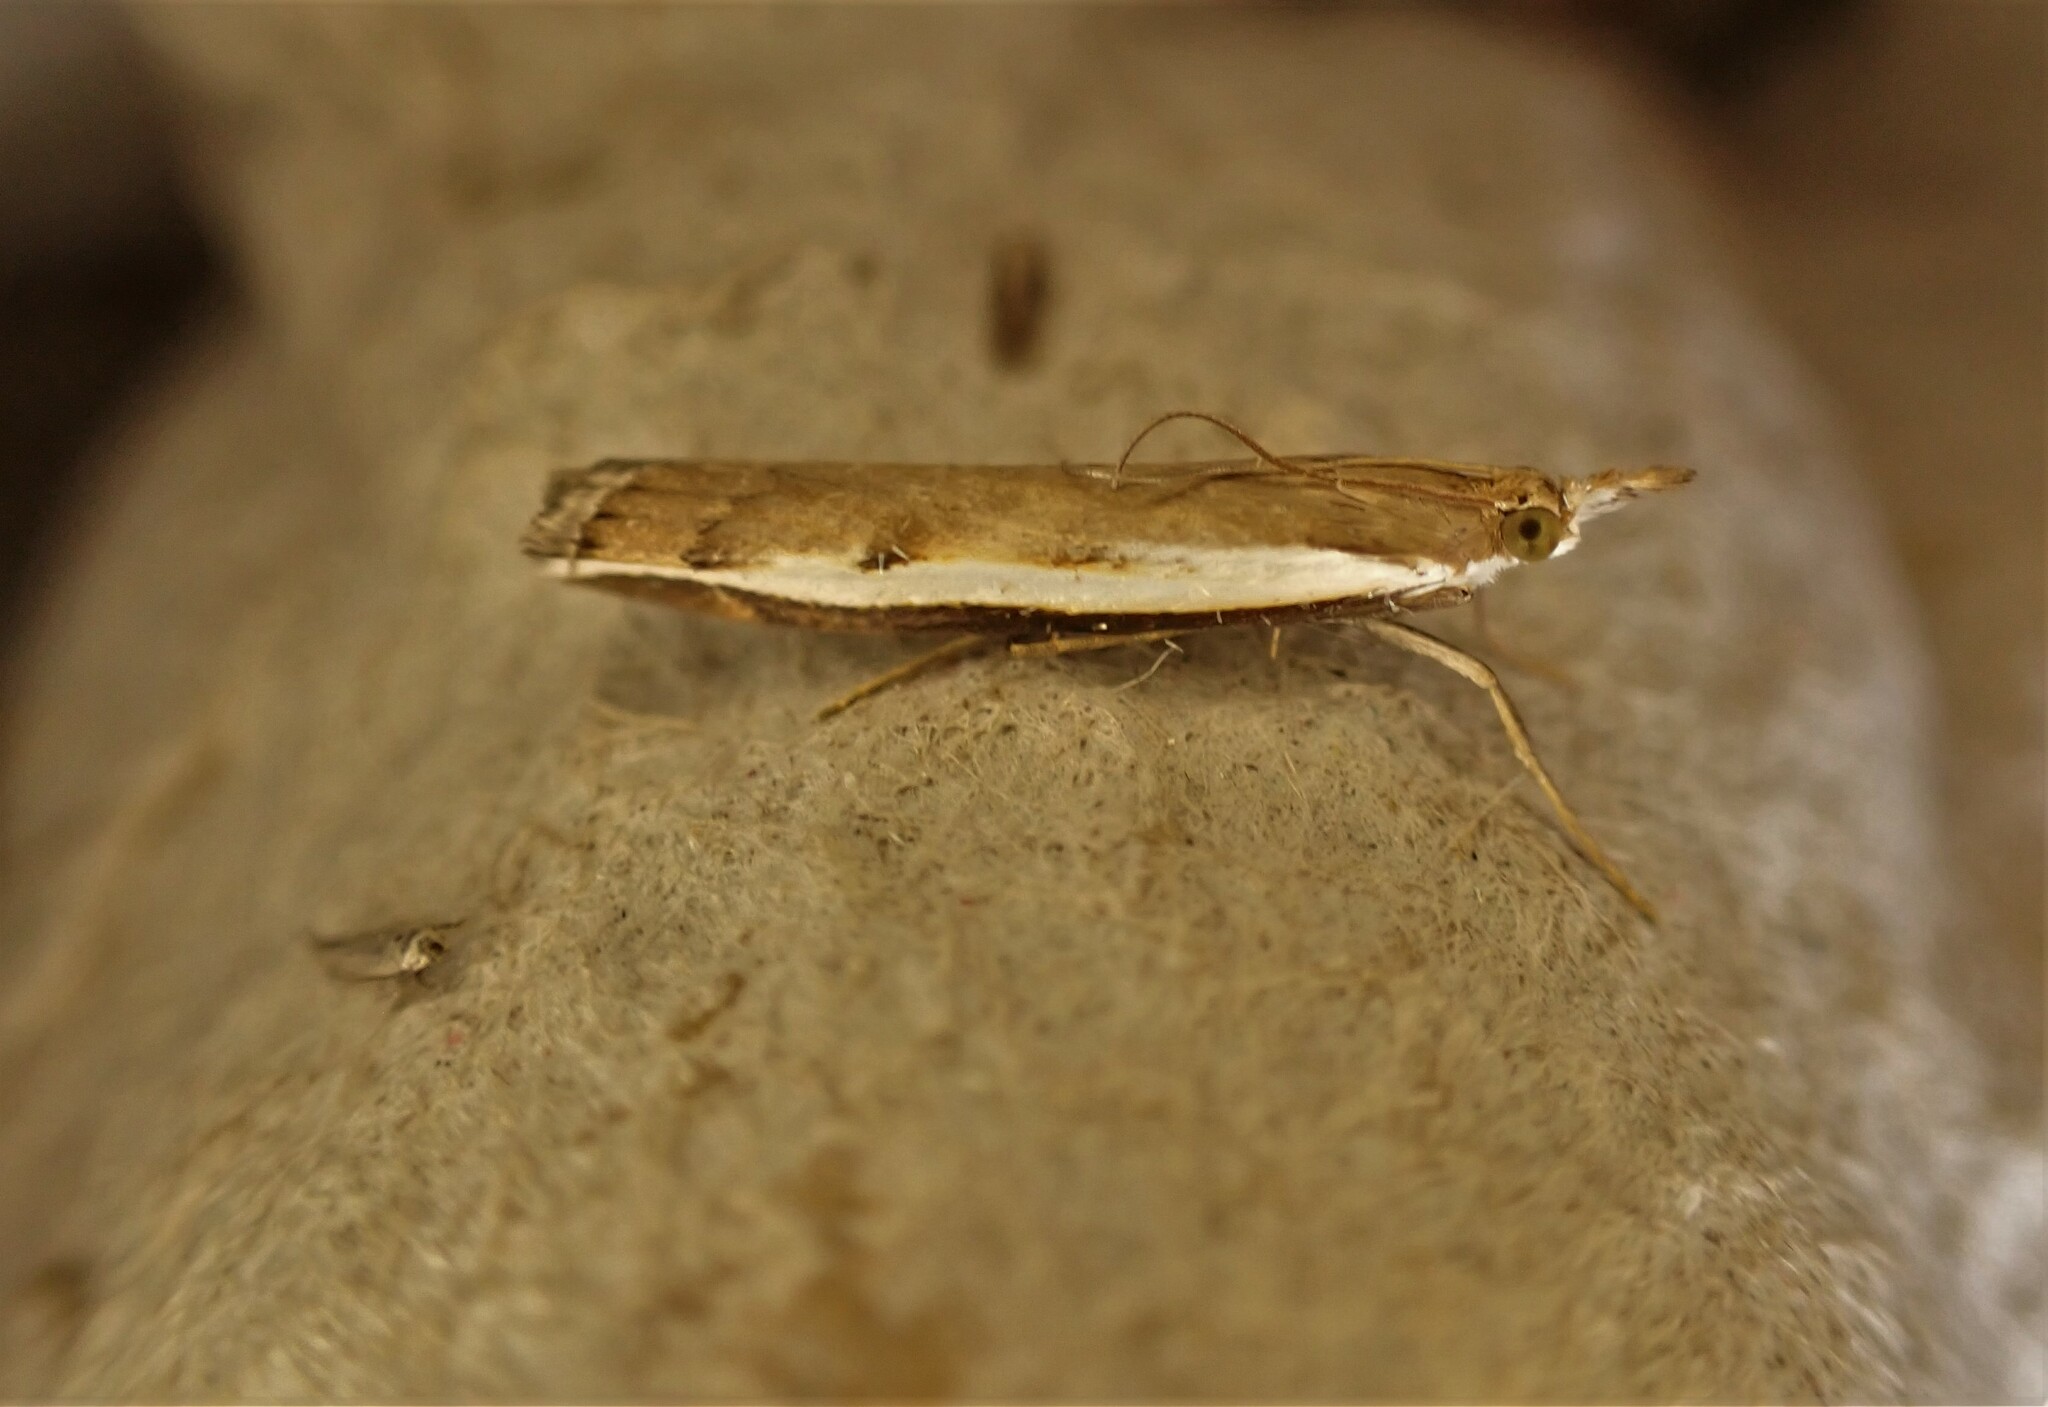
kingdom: Animalia
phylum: Arthropoda
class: Insecta
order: Lepidoptera
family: Crambidae
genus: Orocrambus
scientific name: Orocrambus flexuosellus
